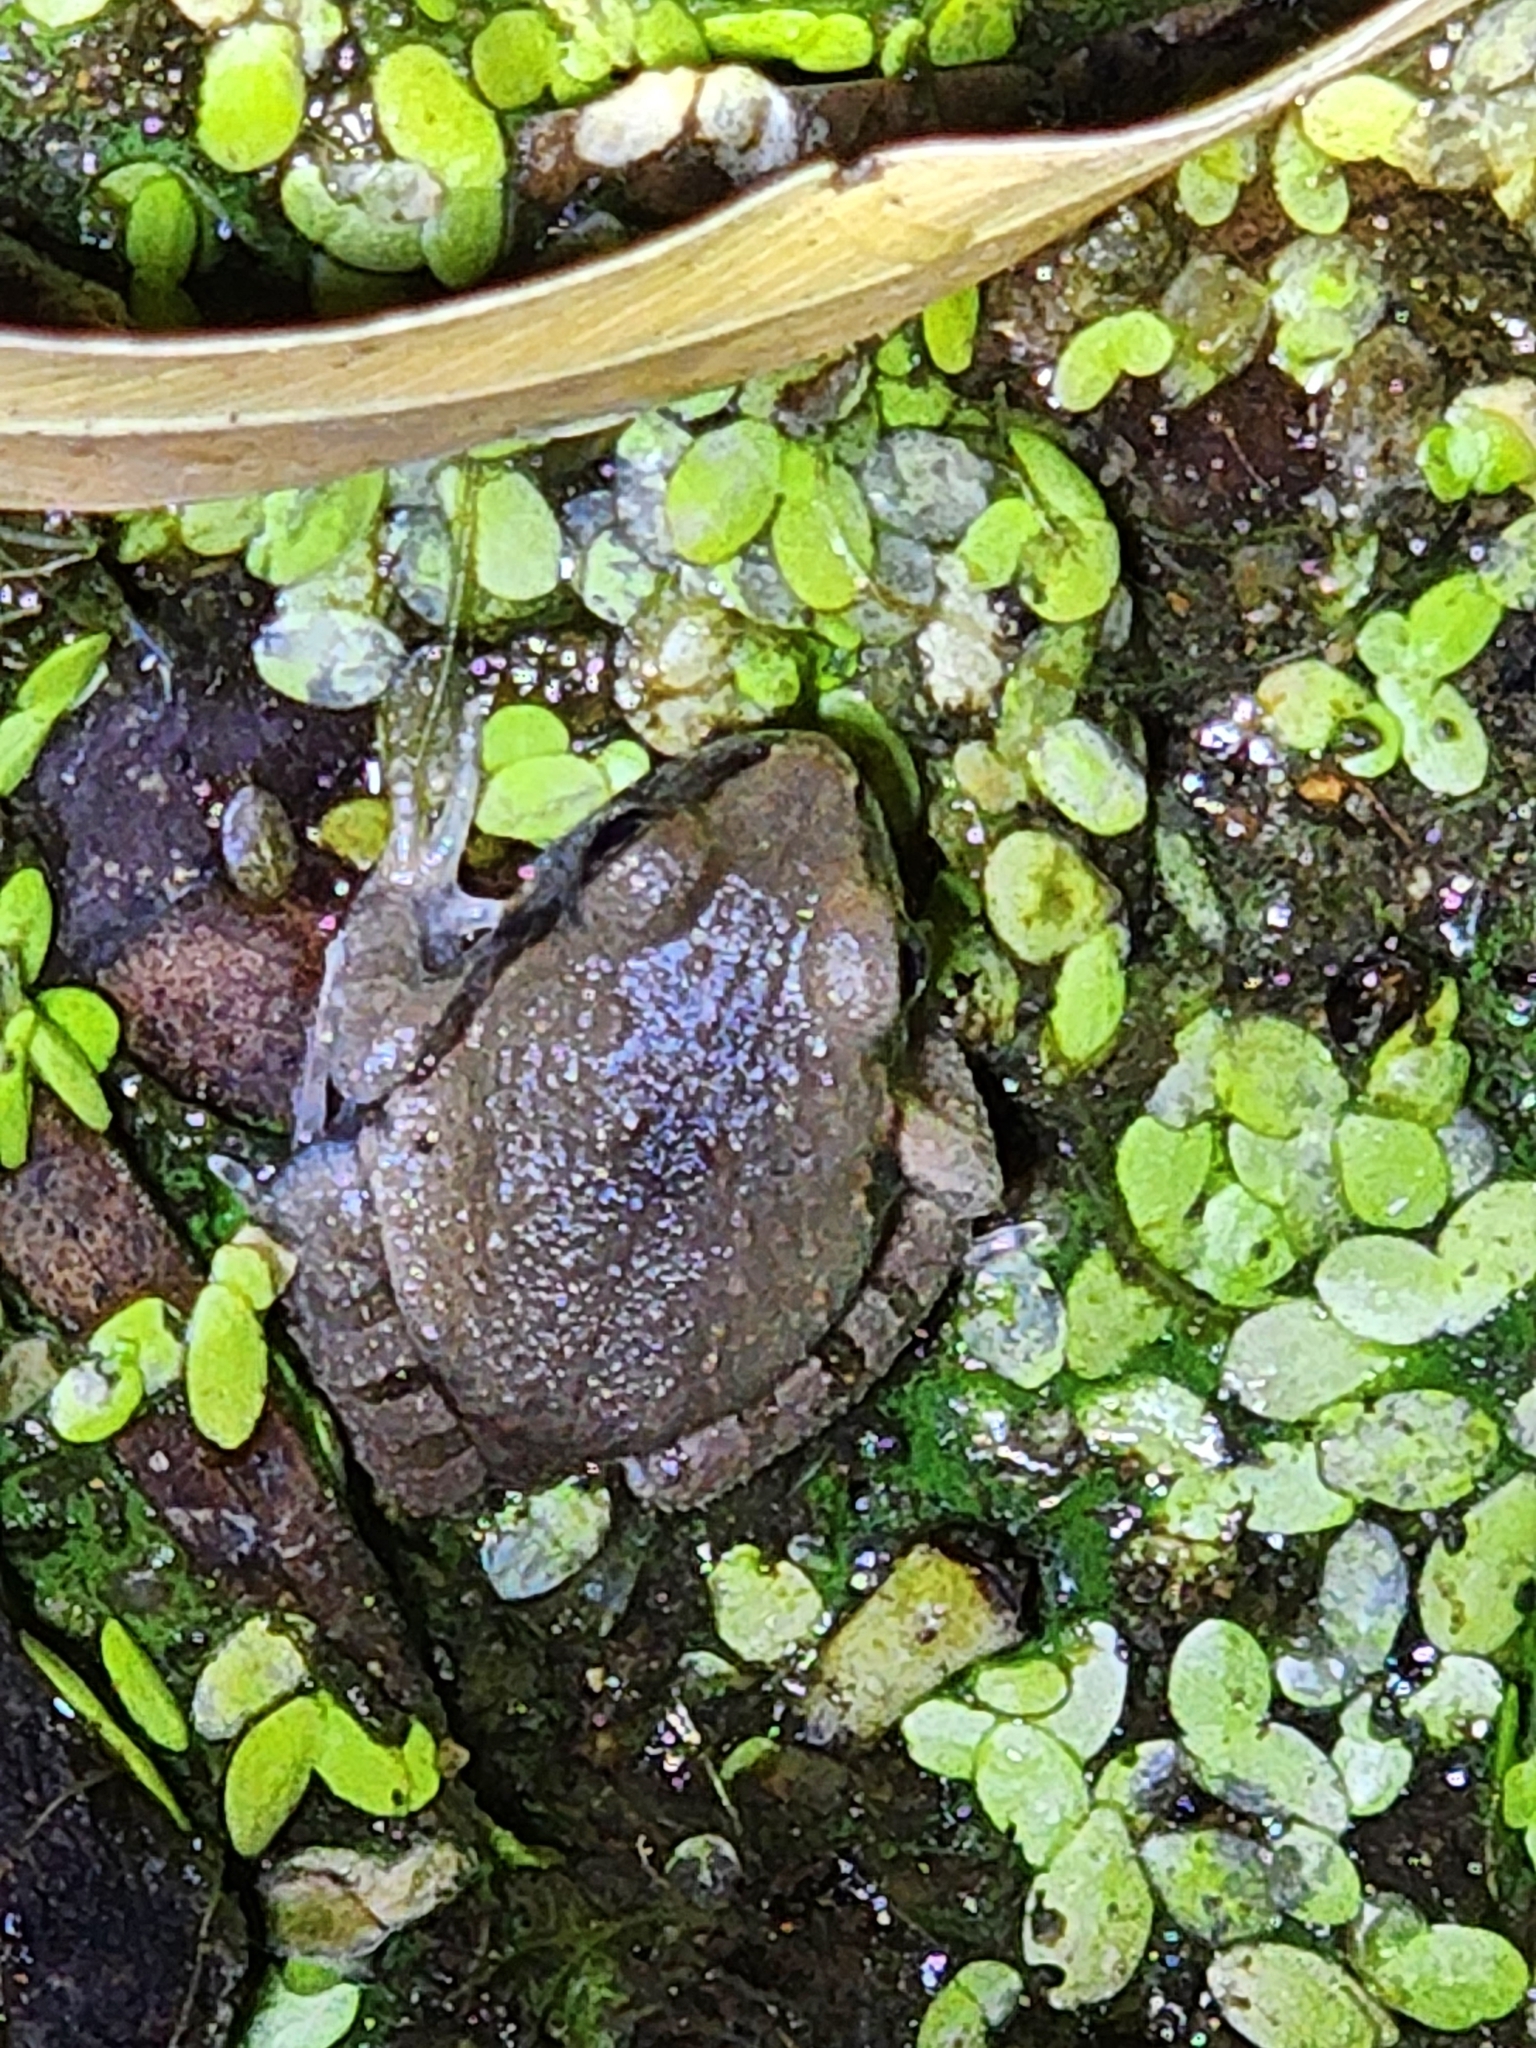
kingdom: Animalia
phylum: Chordata
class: Amphibia
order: Anura
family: Limnodynastidae
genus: Platyplectrum
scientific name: Platyplectrum ornatum
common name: Ornate burrowing frog
